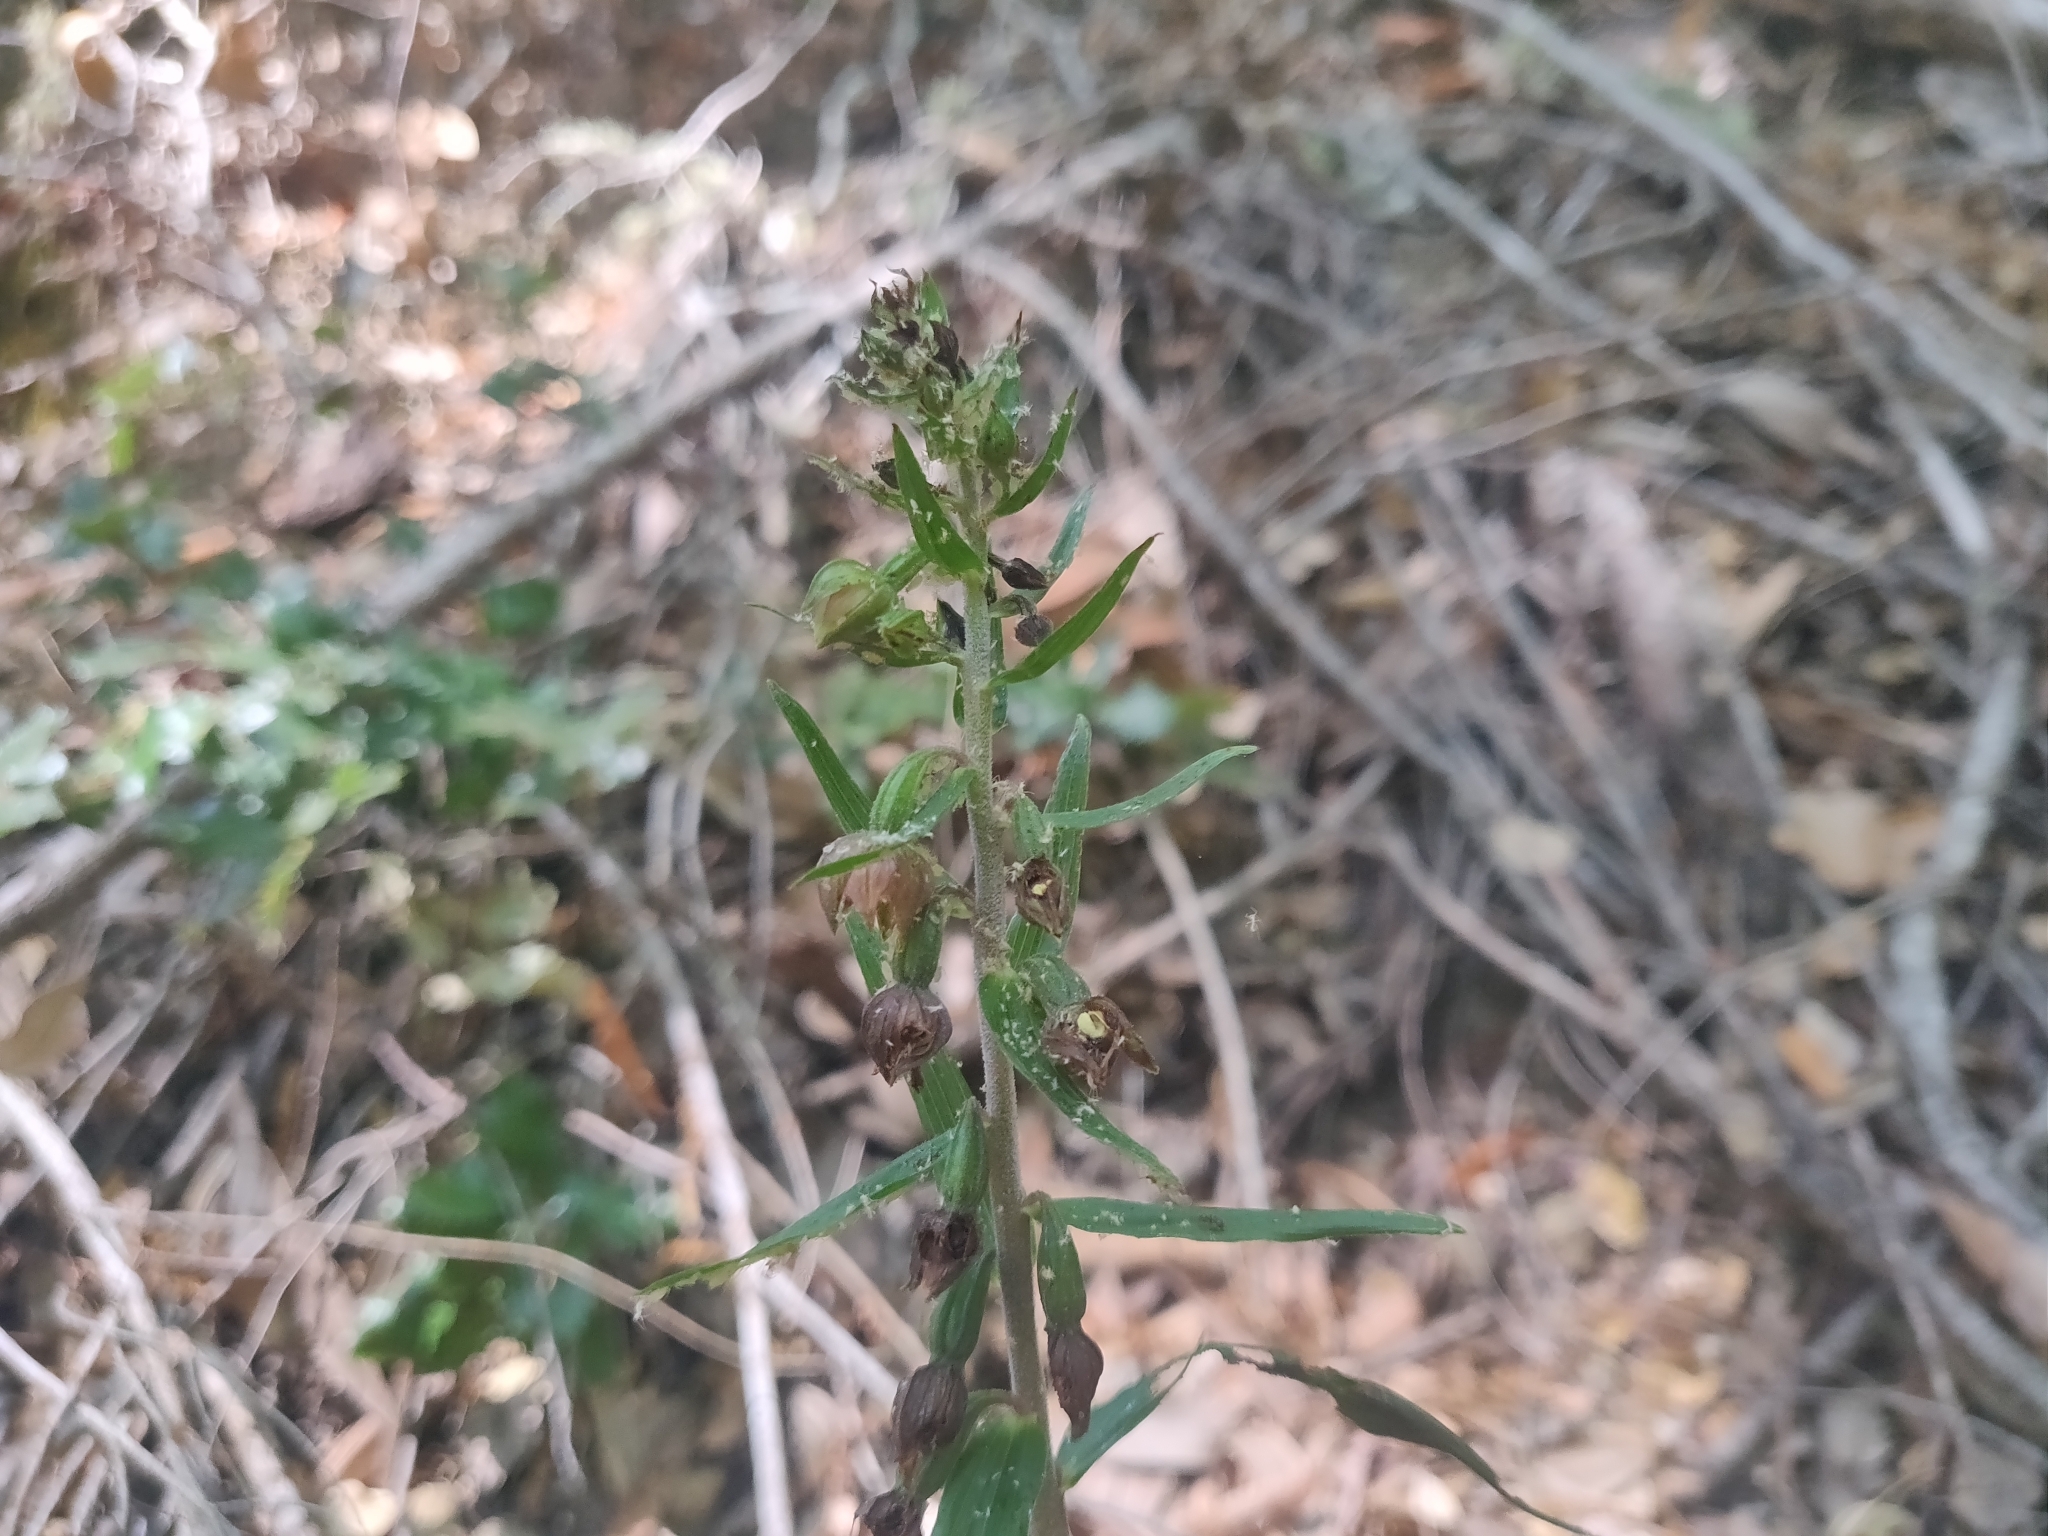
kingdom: Plantae
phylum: Tracheophyta
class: Liliopsida
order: Asparagales
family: Orchidaceae
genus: Epipactis
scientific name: Epipactis helleborine
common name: Broad-leaved helleborine
